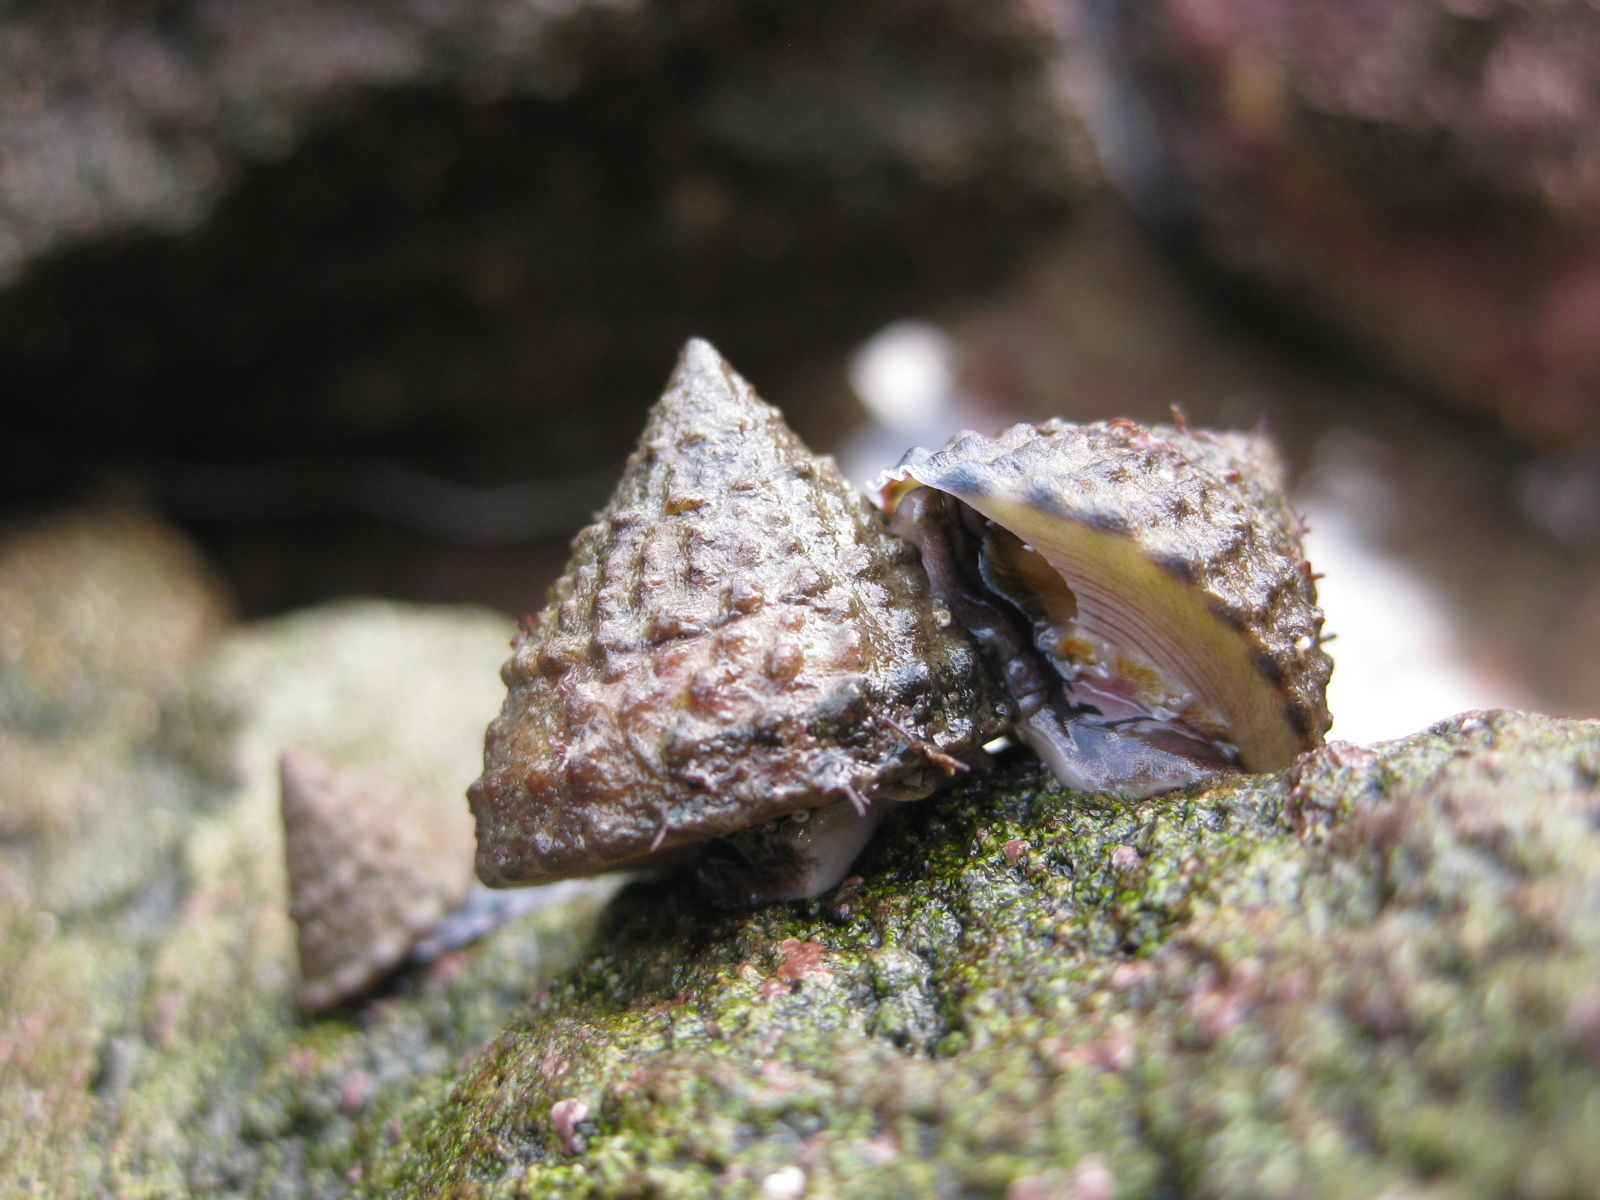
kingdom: Animalia
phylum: Mollusca
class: Gastropoda
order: Trochida
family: Trochidae
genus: Coelotrochus
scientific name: Coelotrochus viridis
